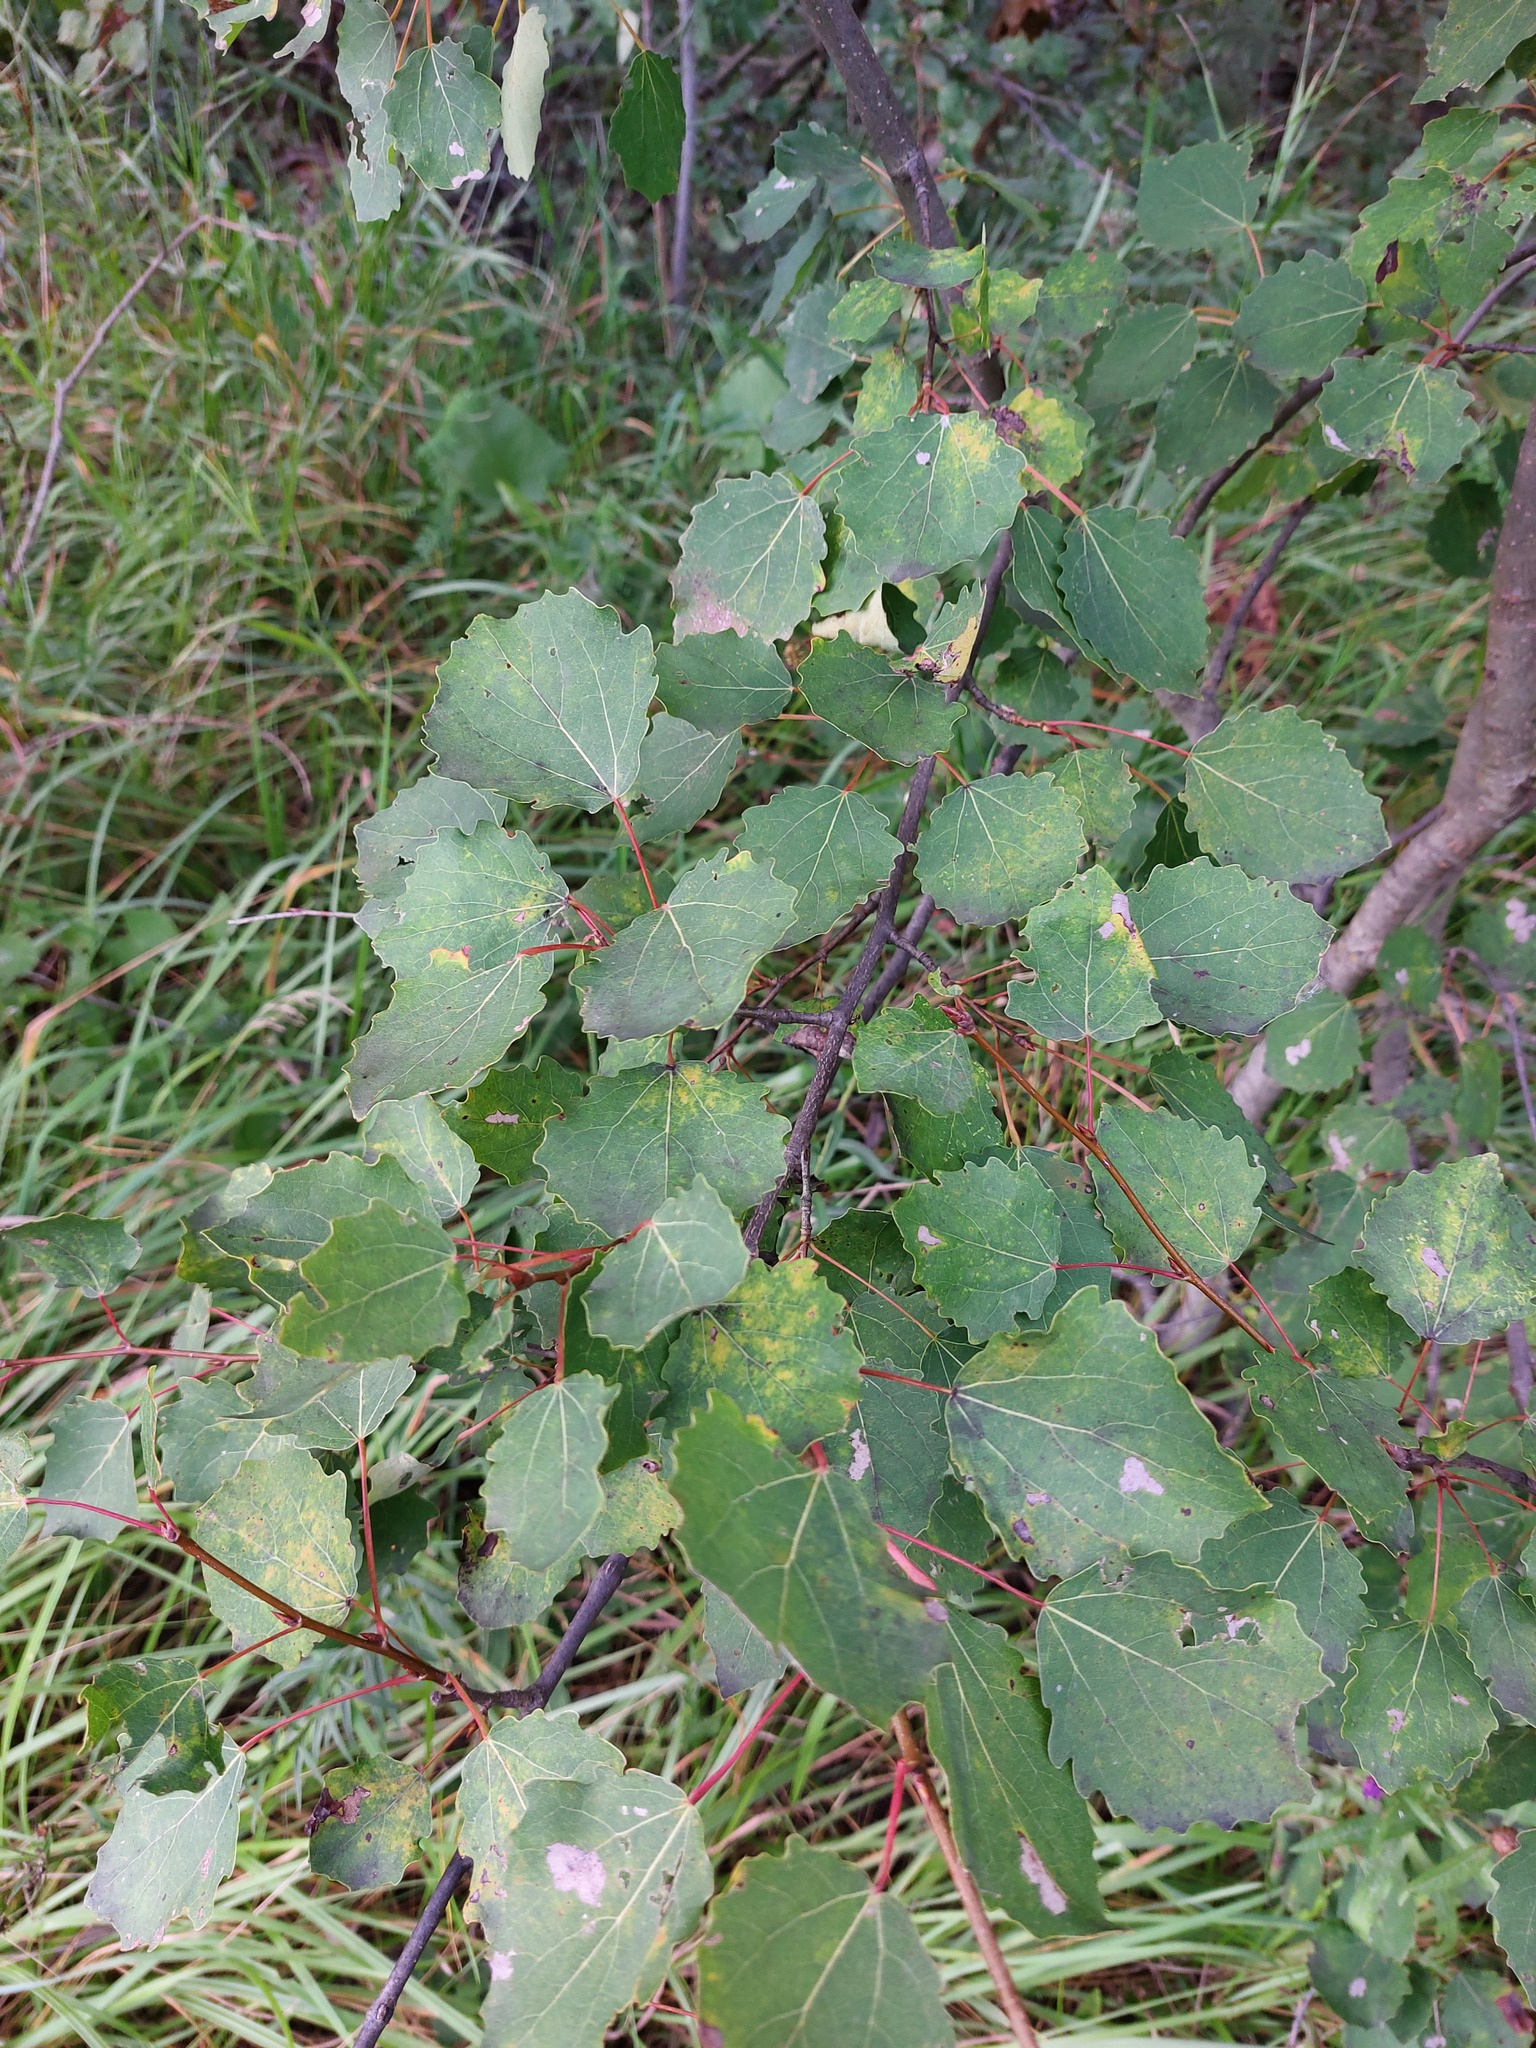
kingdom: Plantae
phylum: Tracheophyta
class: Magnoliopsida
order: Malpighiales
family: Salicaceae
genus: Populus
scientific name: Populus tremula
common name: European aspen
